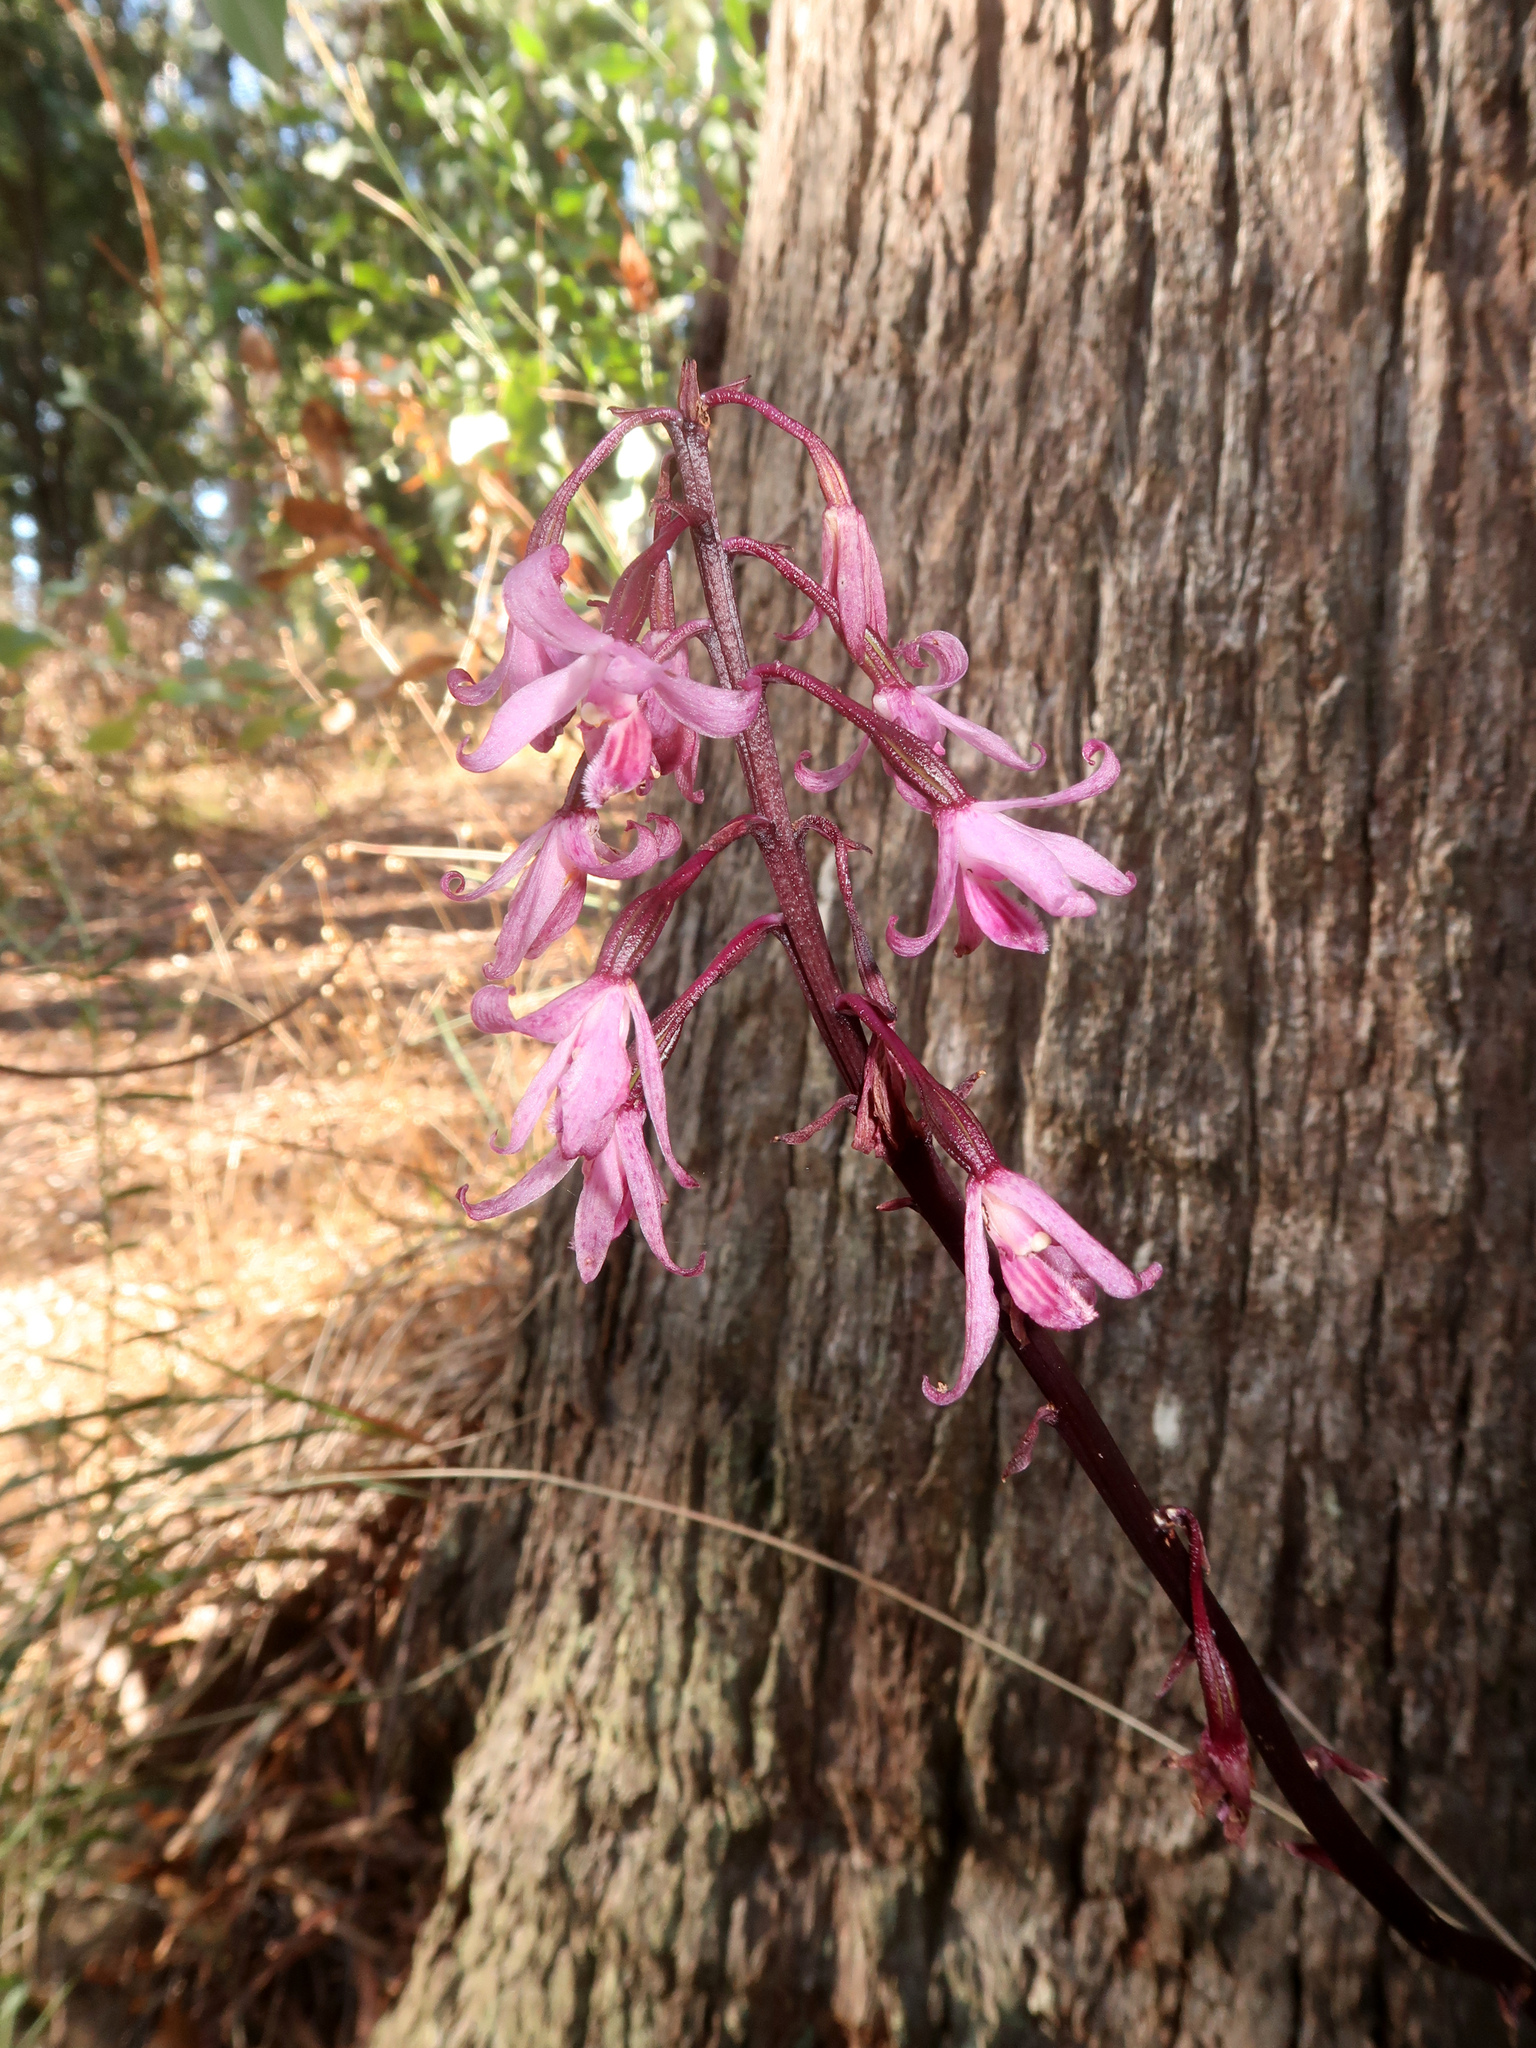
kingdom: Plantae
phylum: Tracheophyta
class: Liliopsida
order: Asparagales
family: Orchidaceae
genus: Dipodium
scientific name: Dipodium roseum
